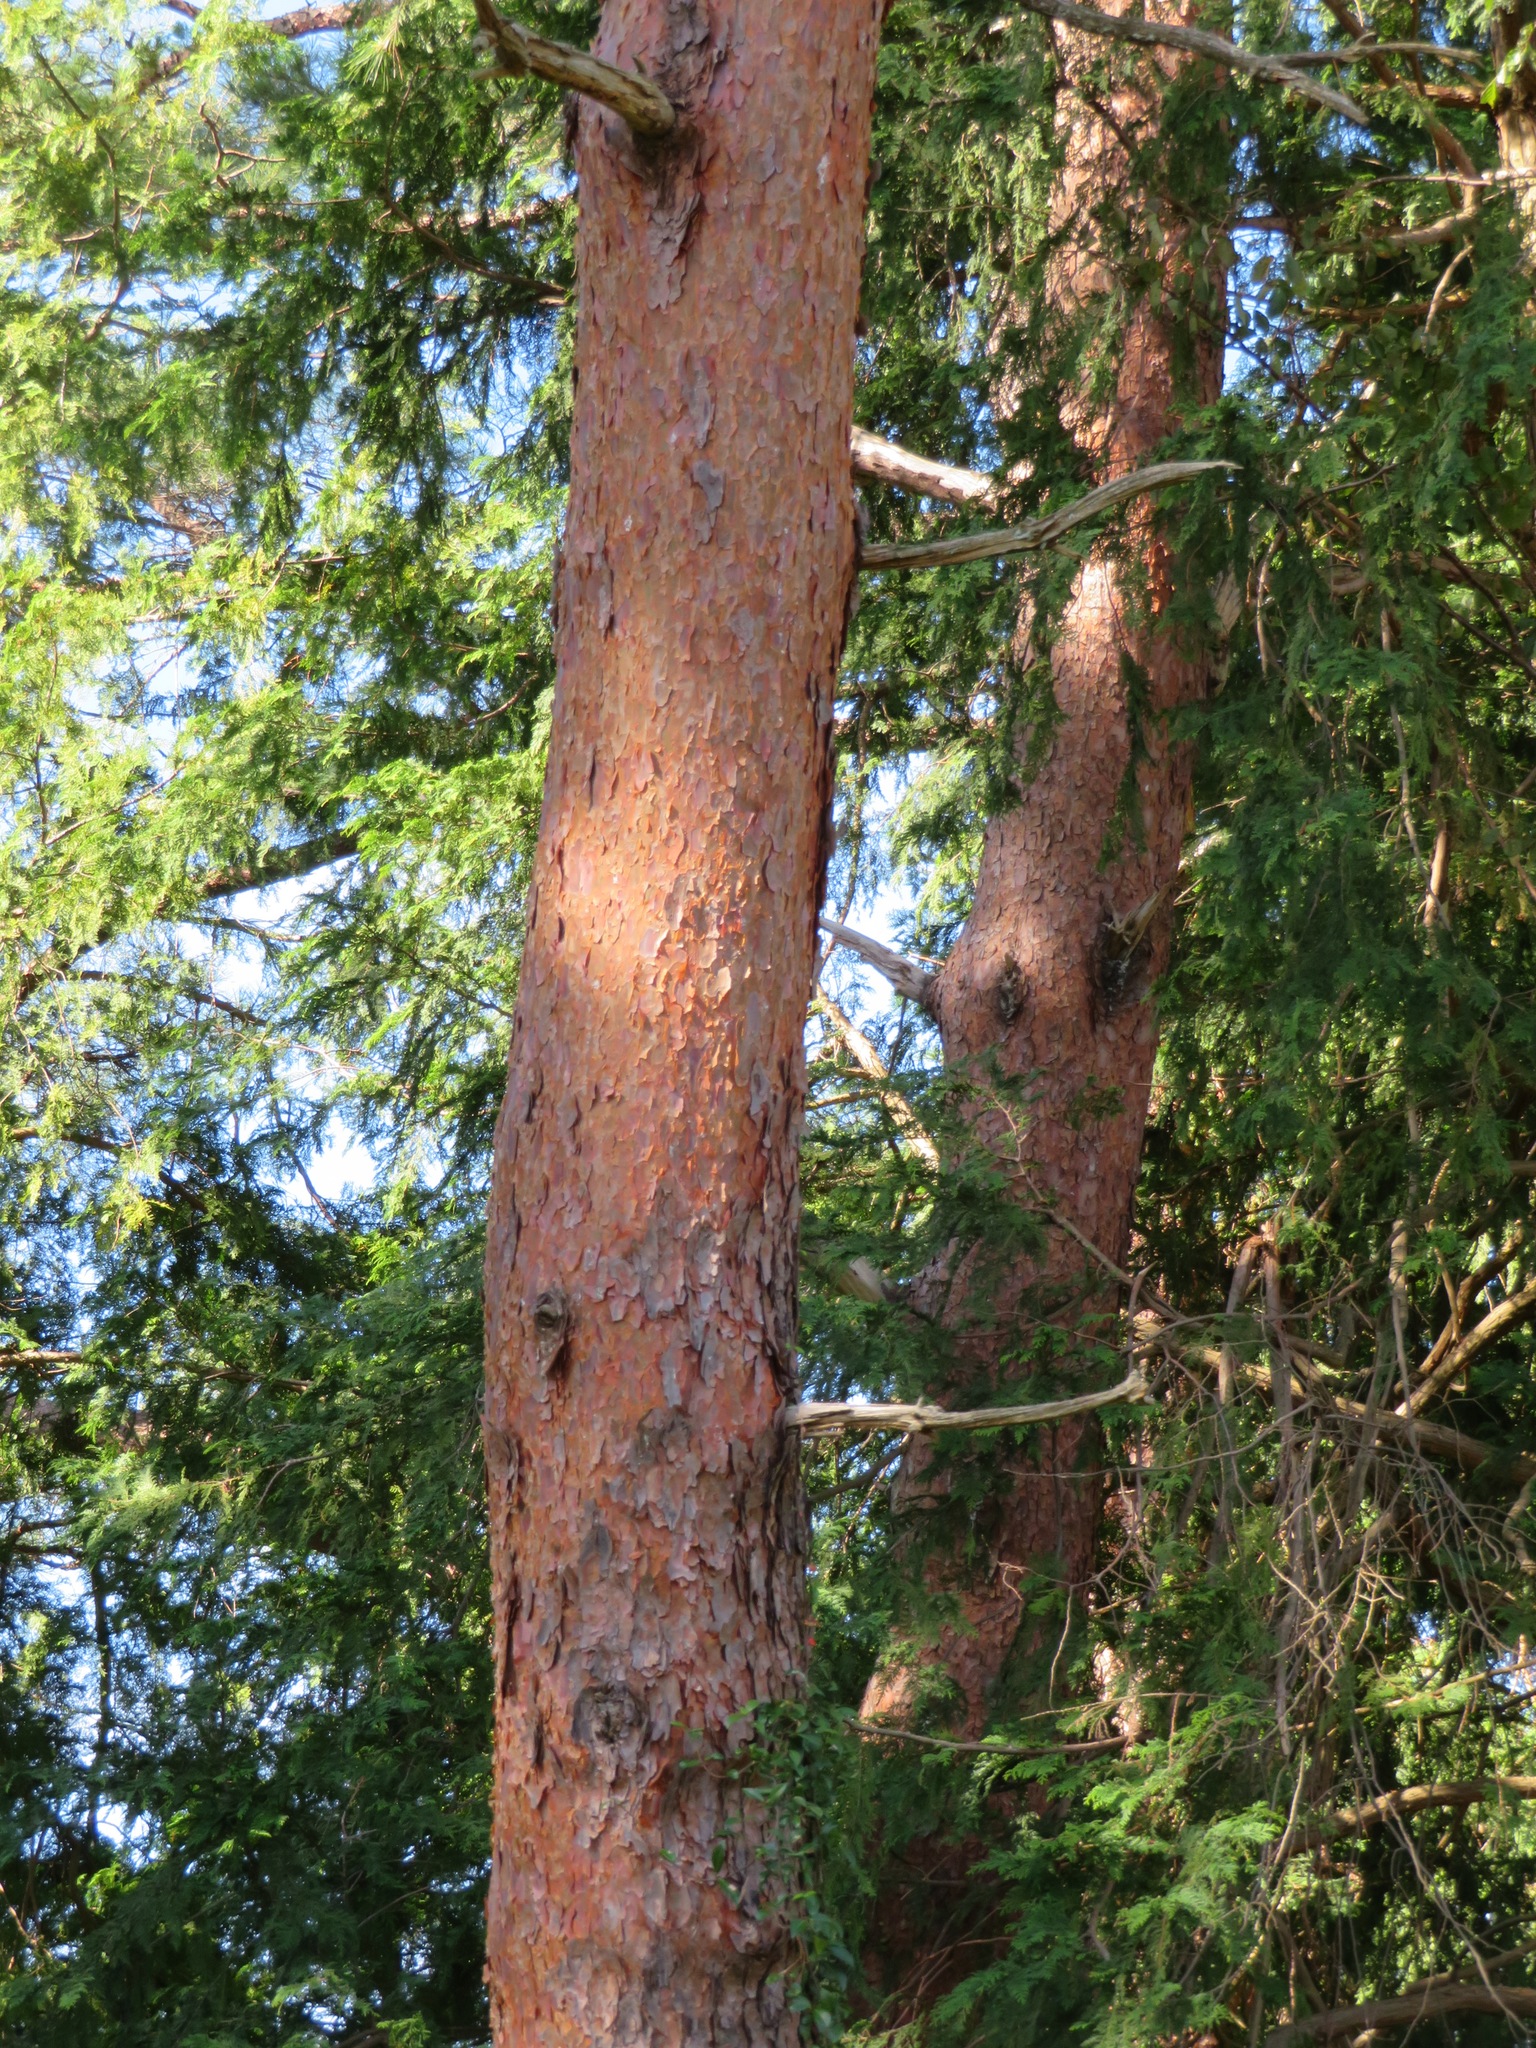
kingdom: Plantae
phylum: Tracheophyta
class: Pinopsida
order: Pinales
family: Pinaceae
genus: Pinus
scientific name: Pinus densiflora
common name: Japanese red pine
